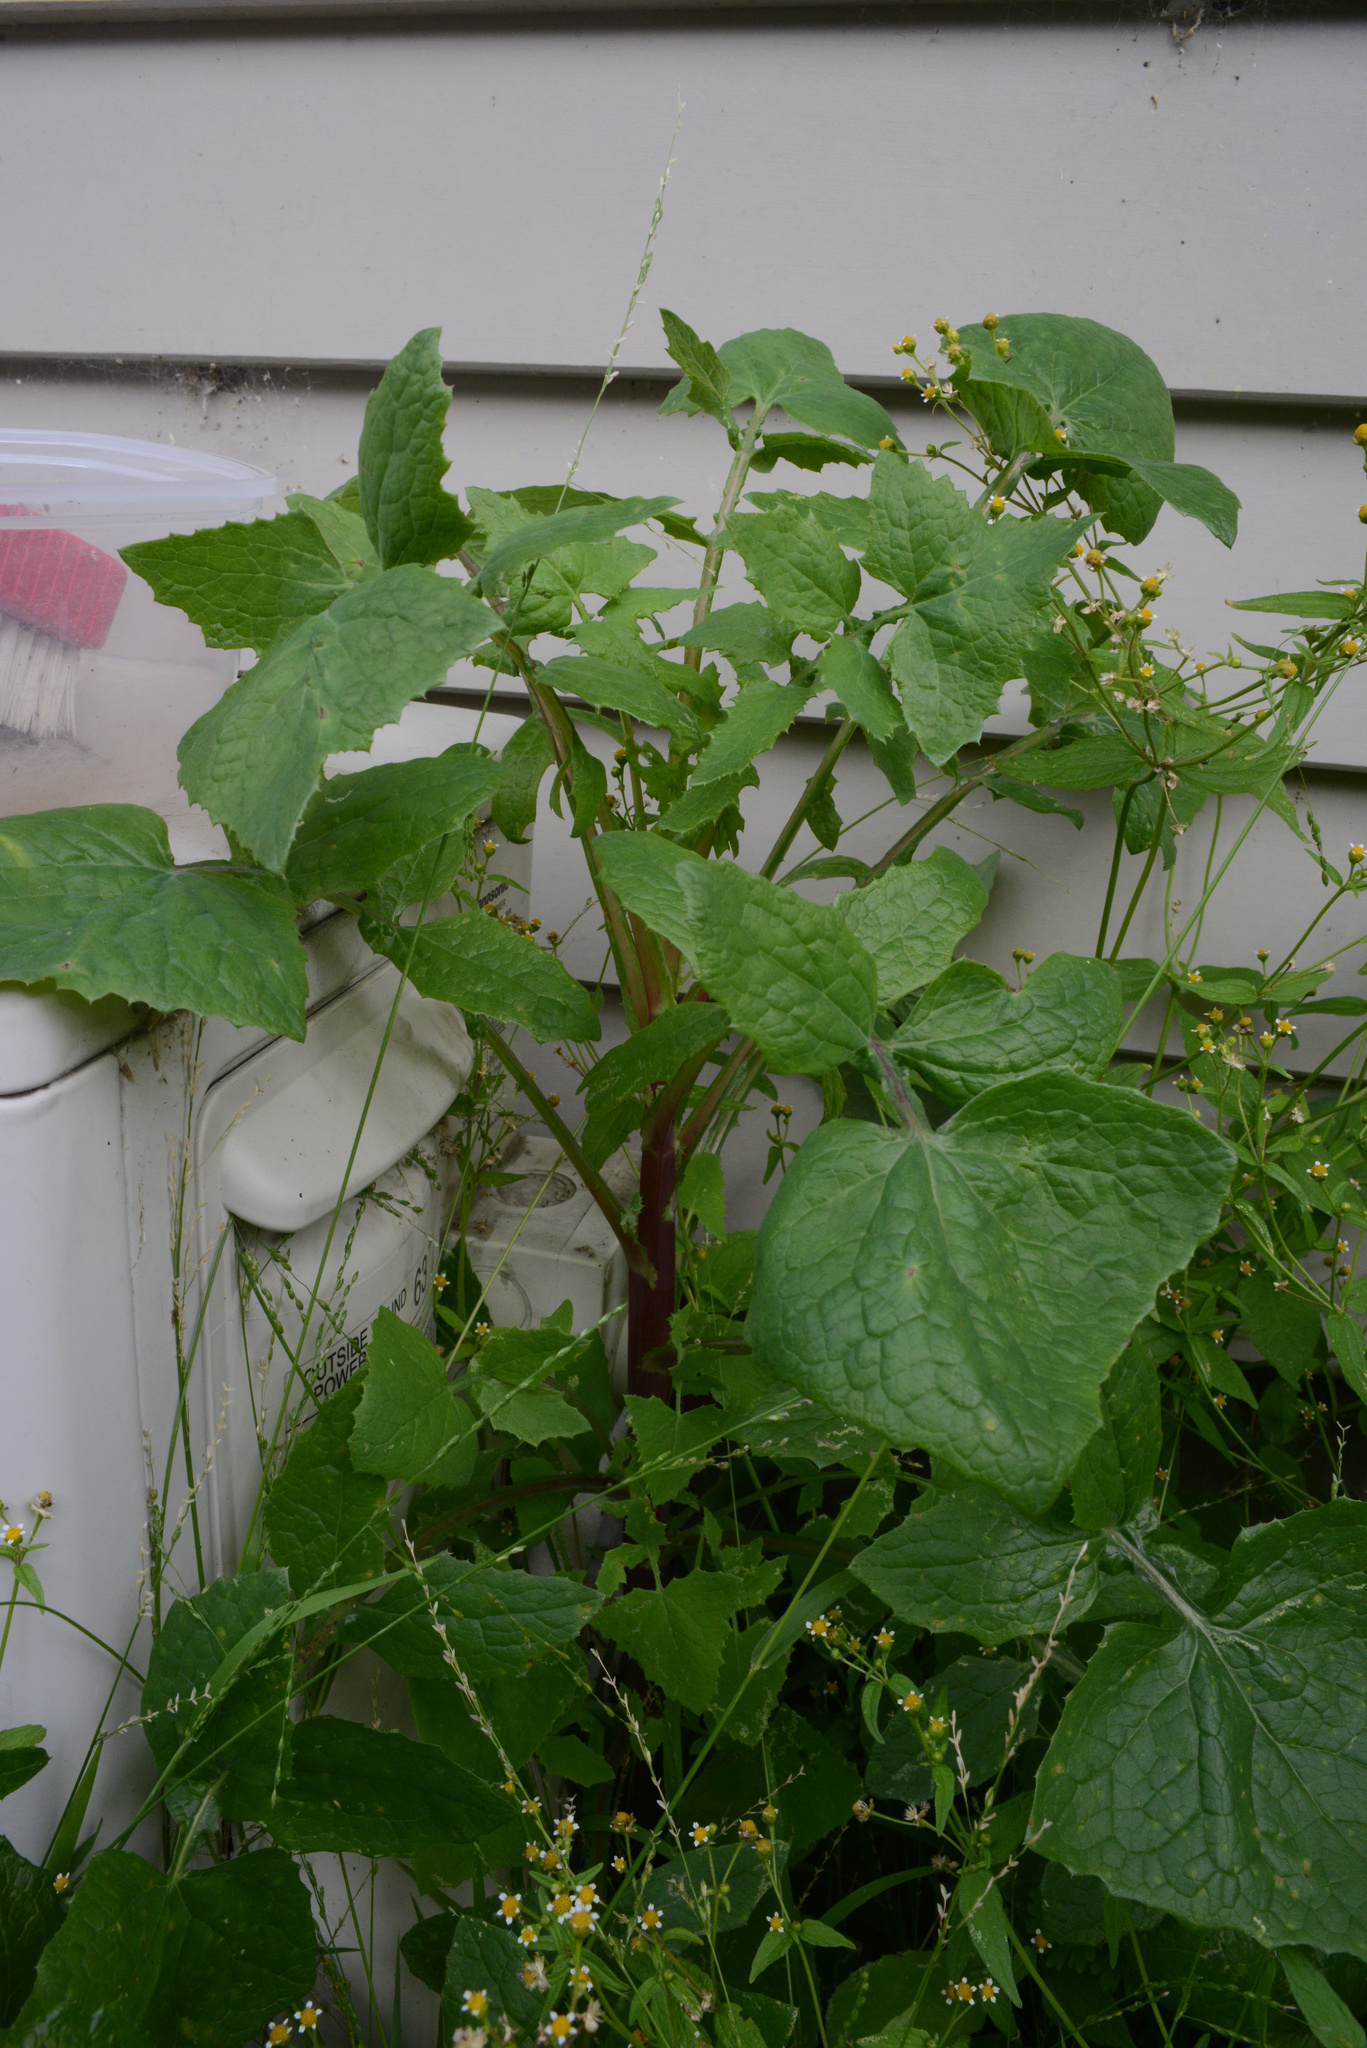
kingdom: Plantae
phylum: Tracheophyta
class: Magnoliopsida
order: Asterales
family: Asteraceae
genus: Sonchus
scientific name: Sonchus oleraceus
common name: Common sowthistle
